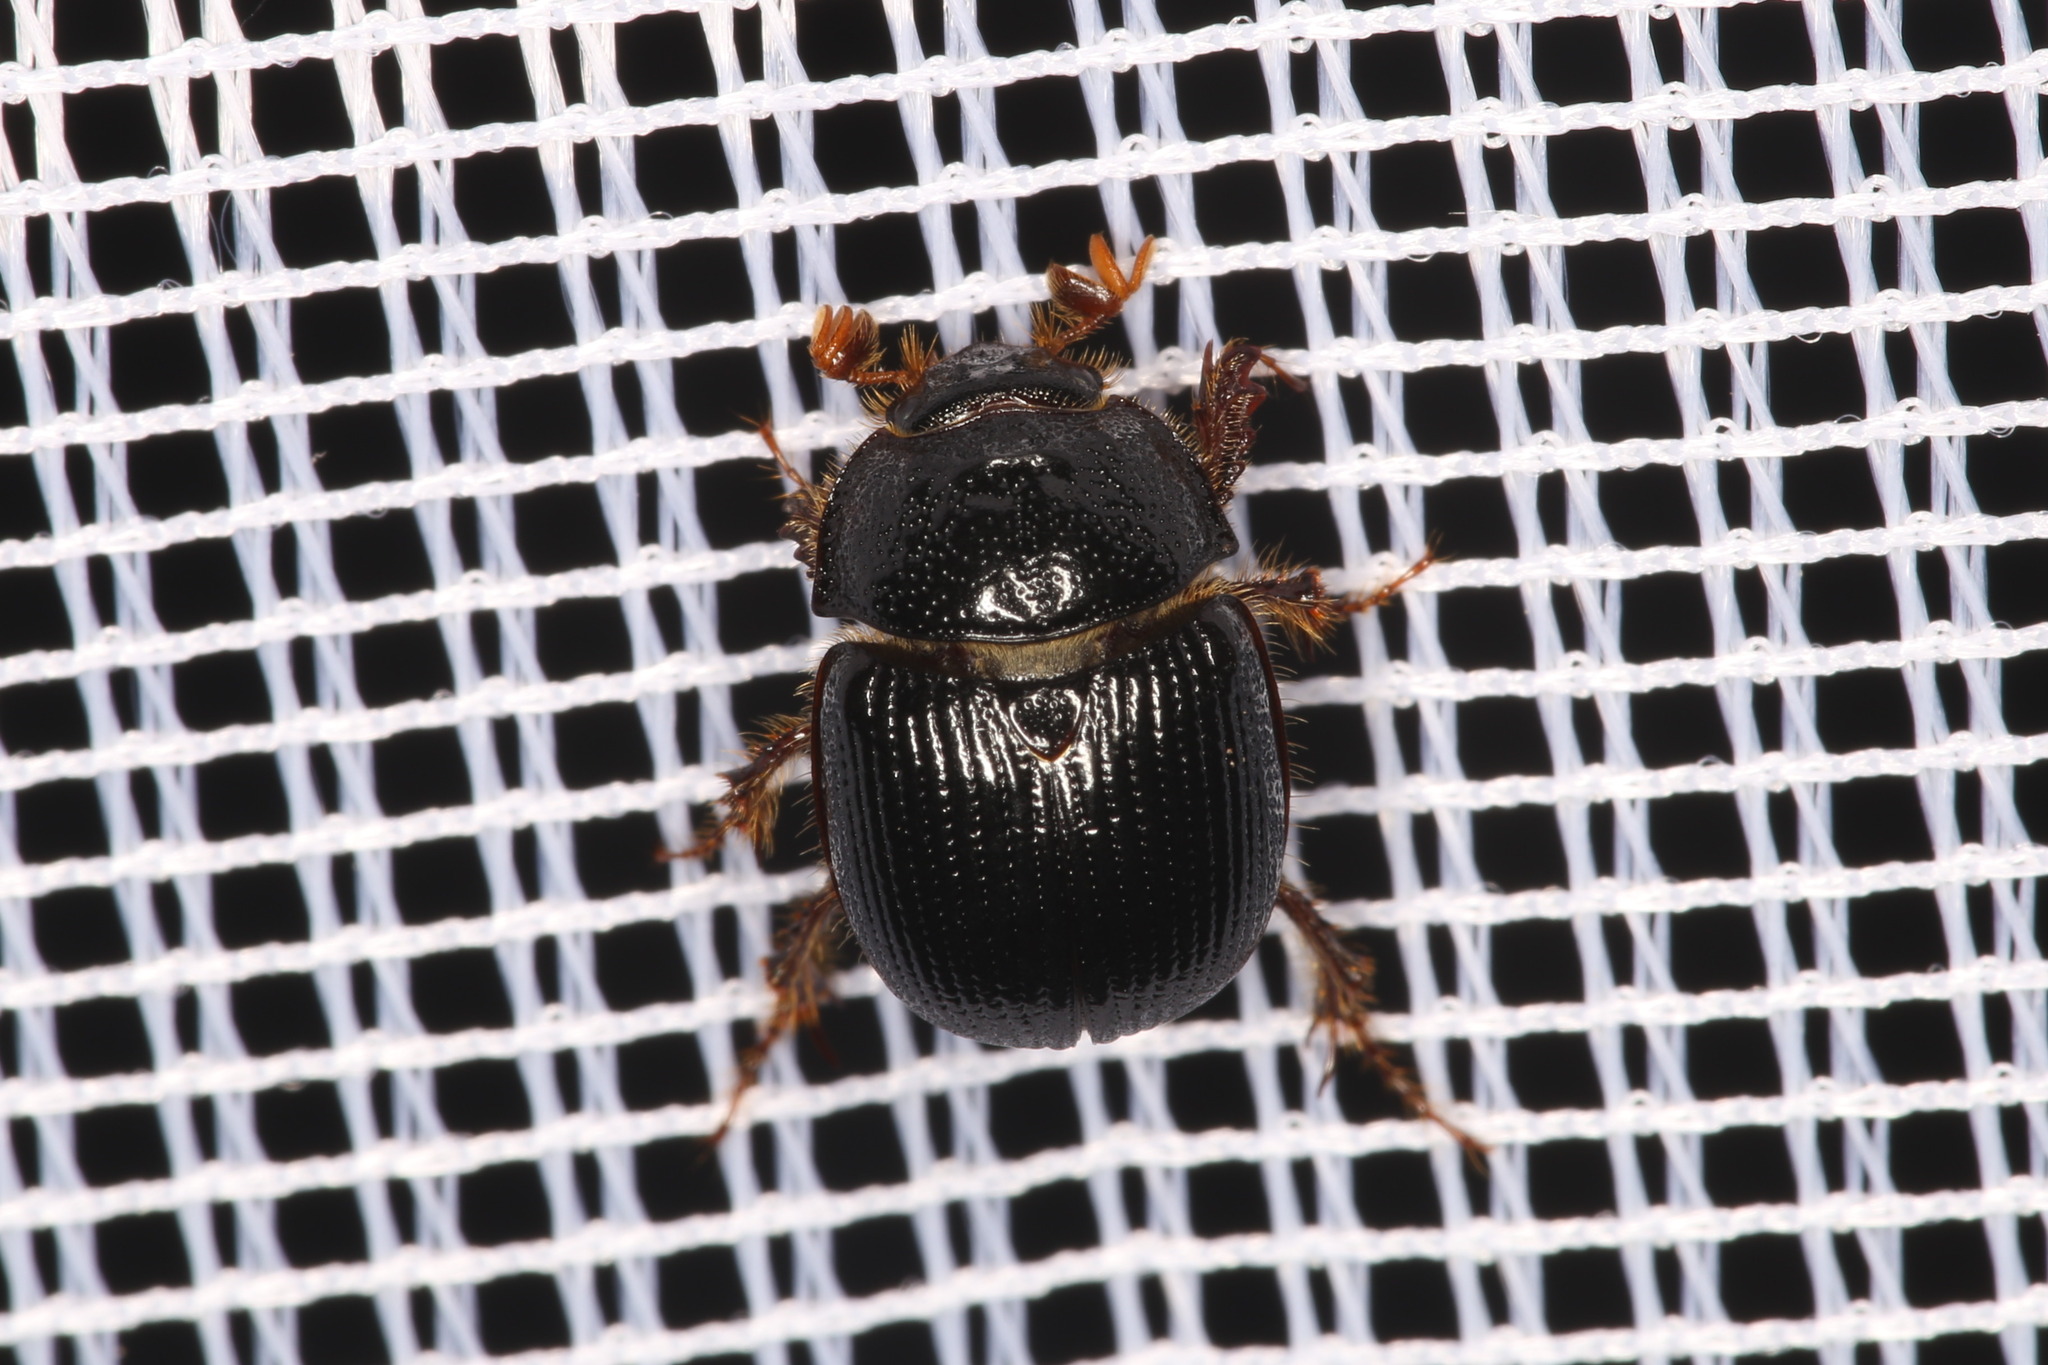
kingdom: Animalia
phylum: Arthropoda
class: Insecta
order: Coleoptera
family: Geotrupidae
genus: Odonteus
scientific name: Odonteus armiger
